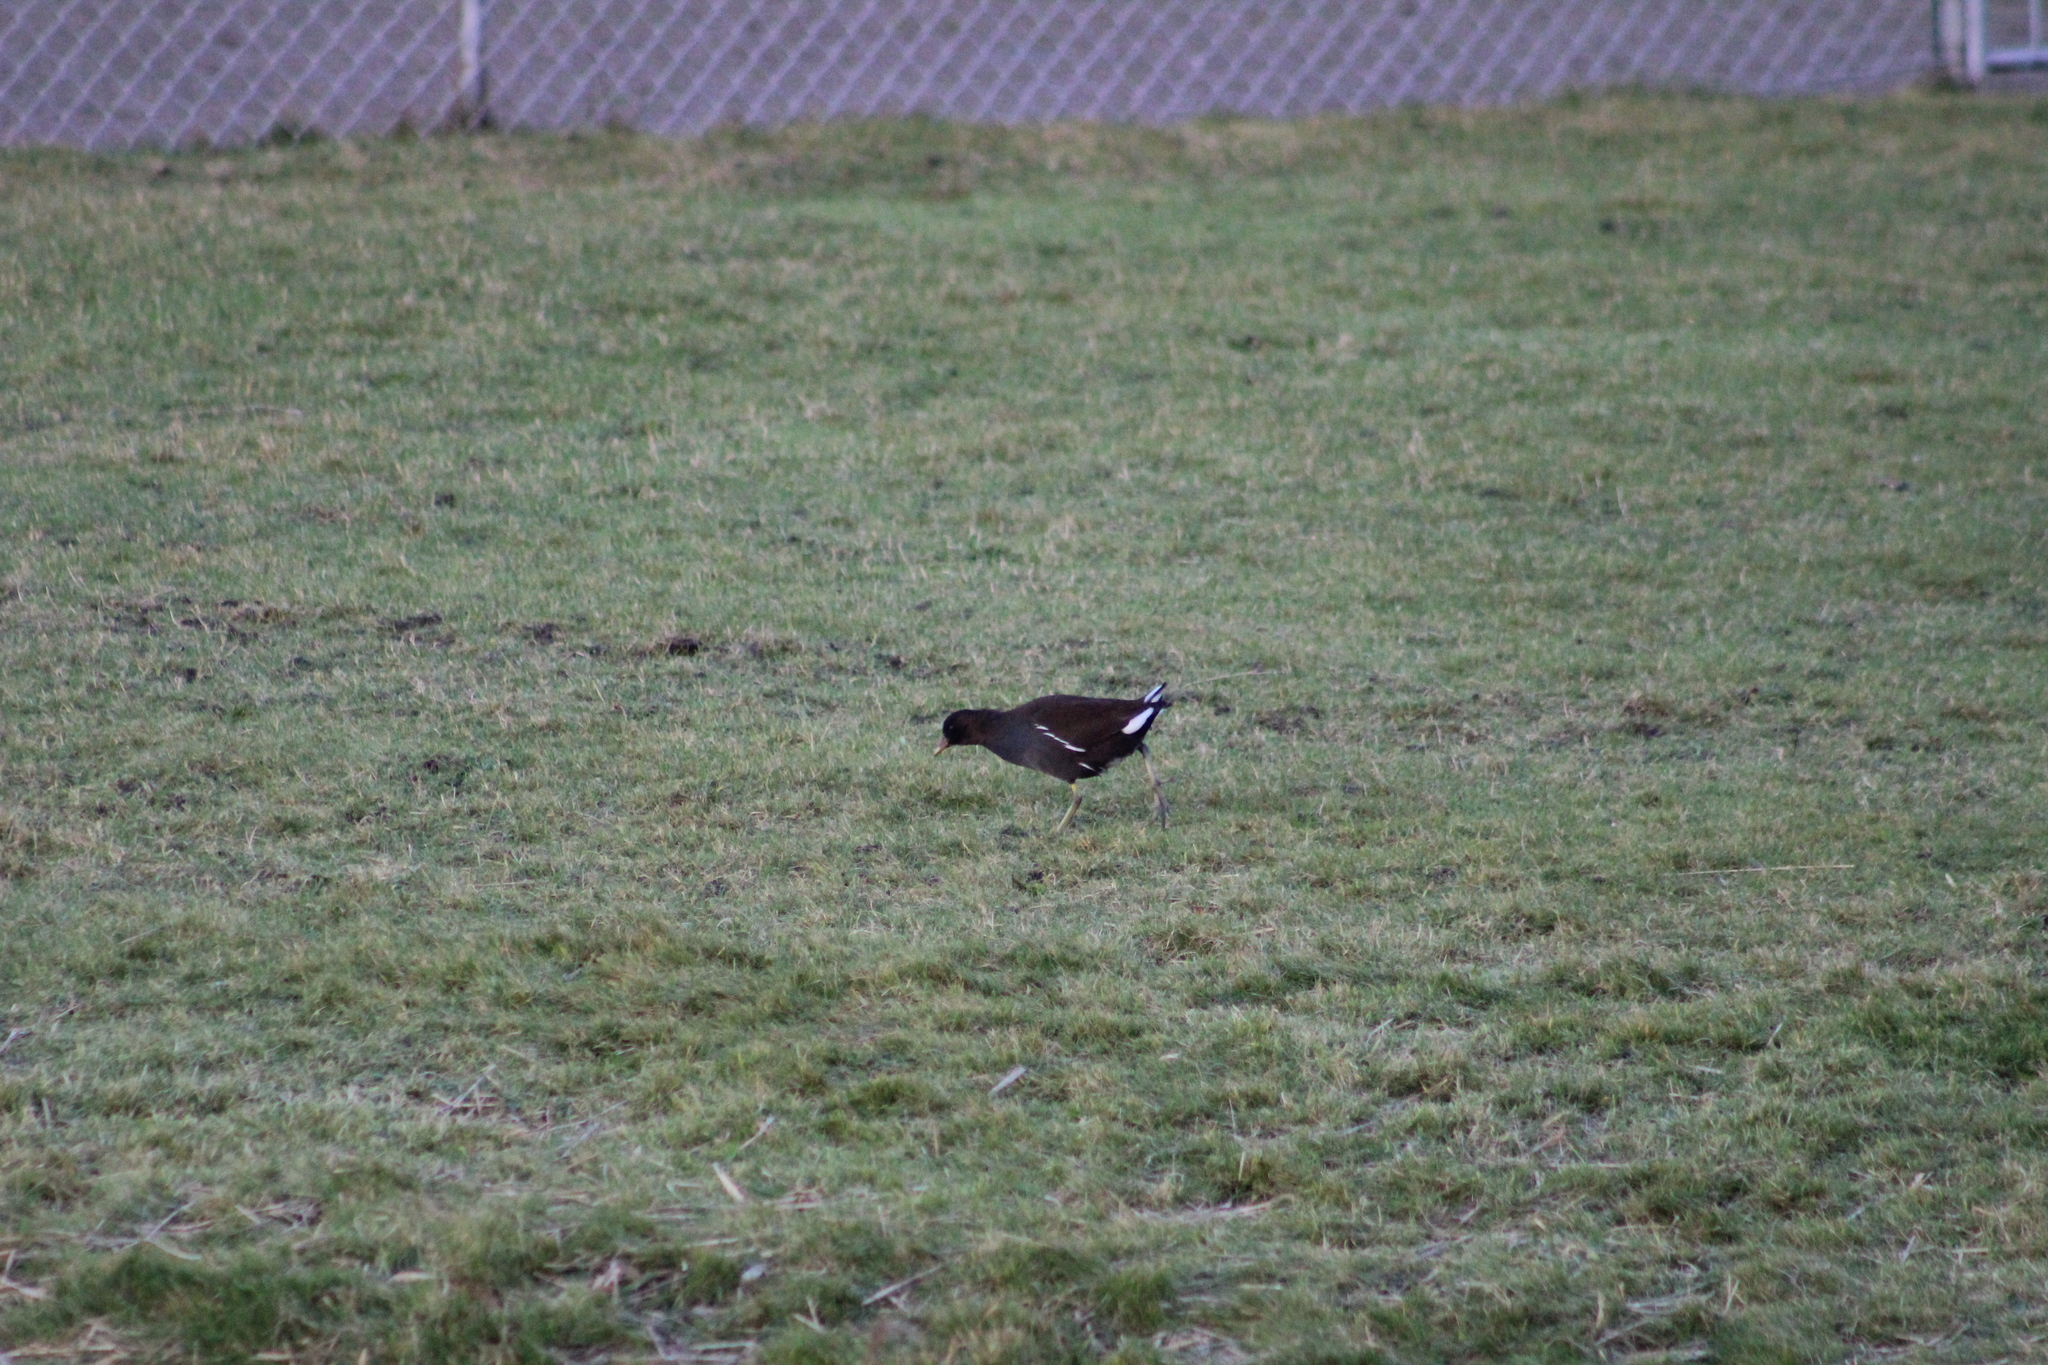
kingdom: Animalia
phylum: Chordata
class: Aves
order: Gruiformes
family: Rallidae
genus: Gallinula
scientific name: Gallinula chloropus
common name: Common moorhen
